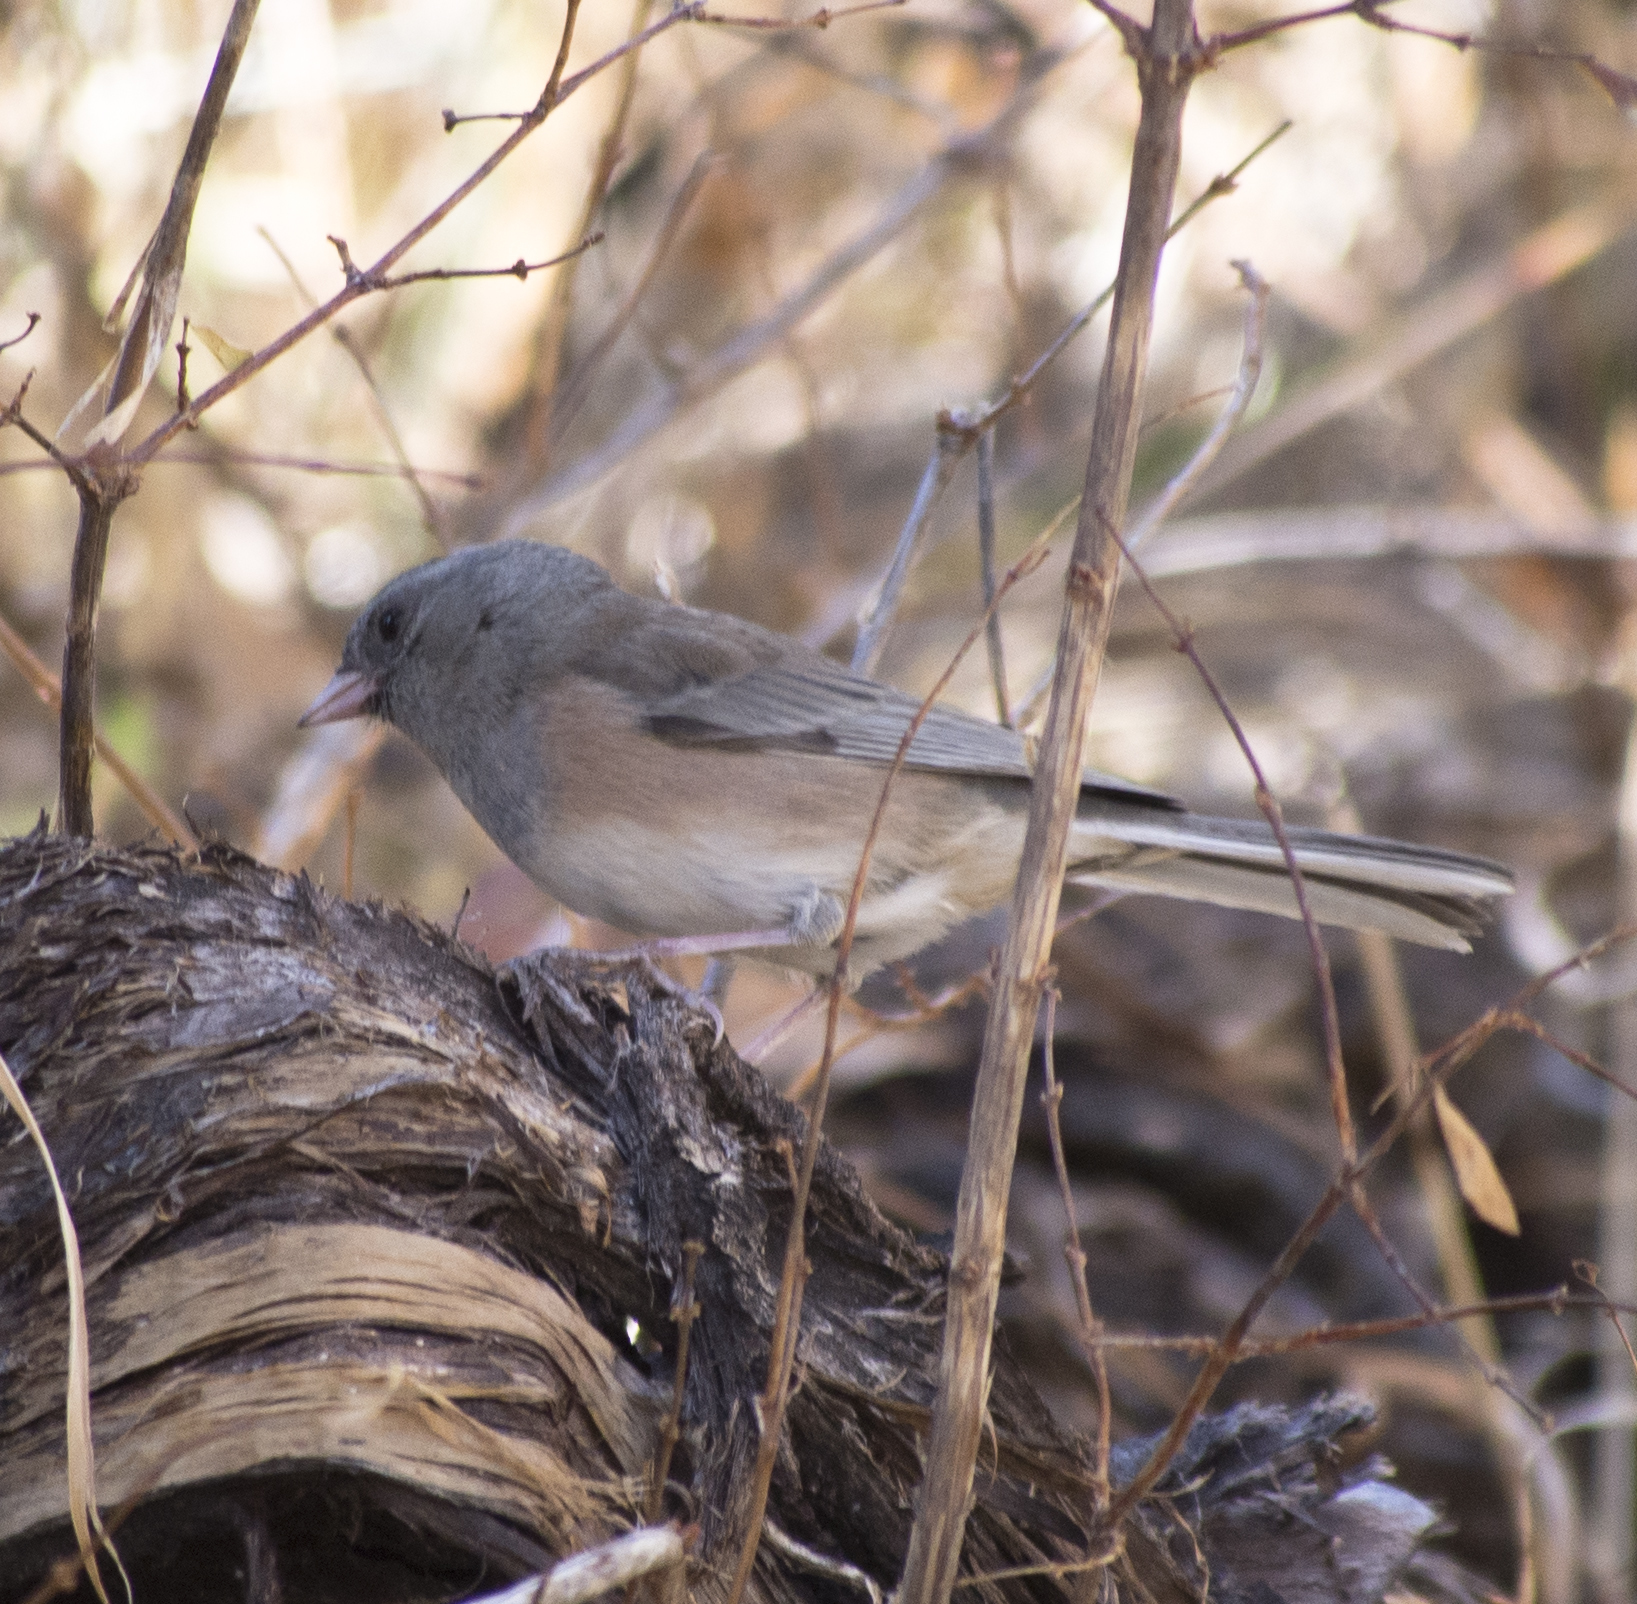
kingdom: Animalia
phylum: Chordata
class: Aves
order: Passeriformes
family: Passerellidae
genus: Junco
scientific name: Junco hyemalis
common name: Dark-eyed junco
